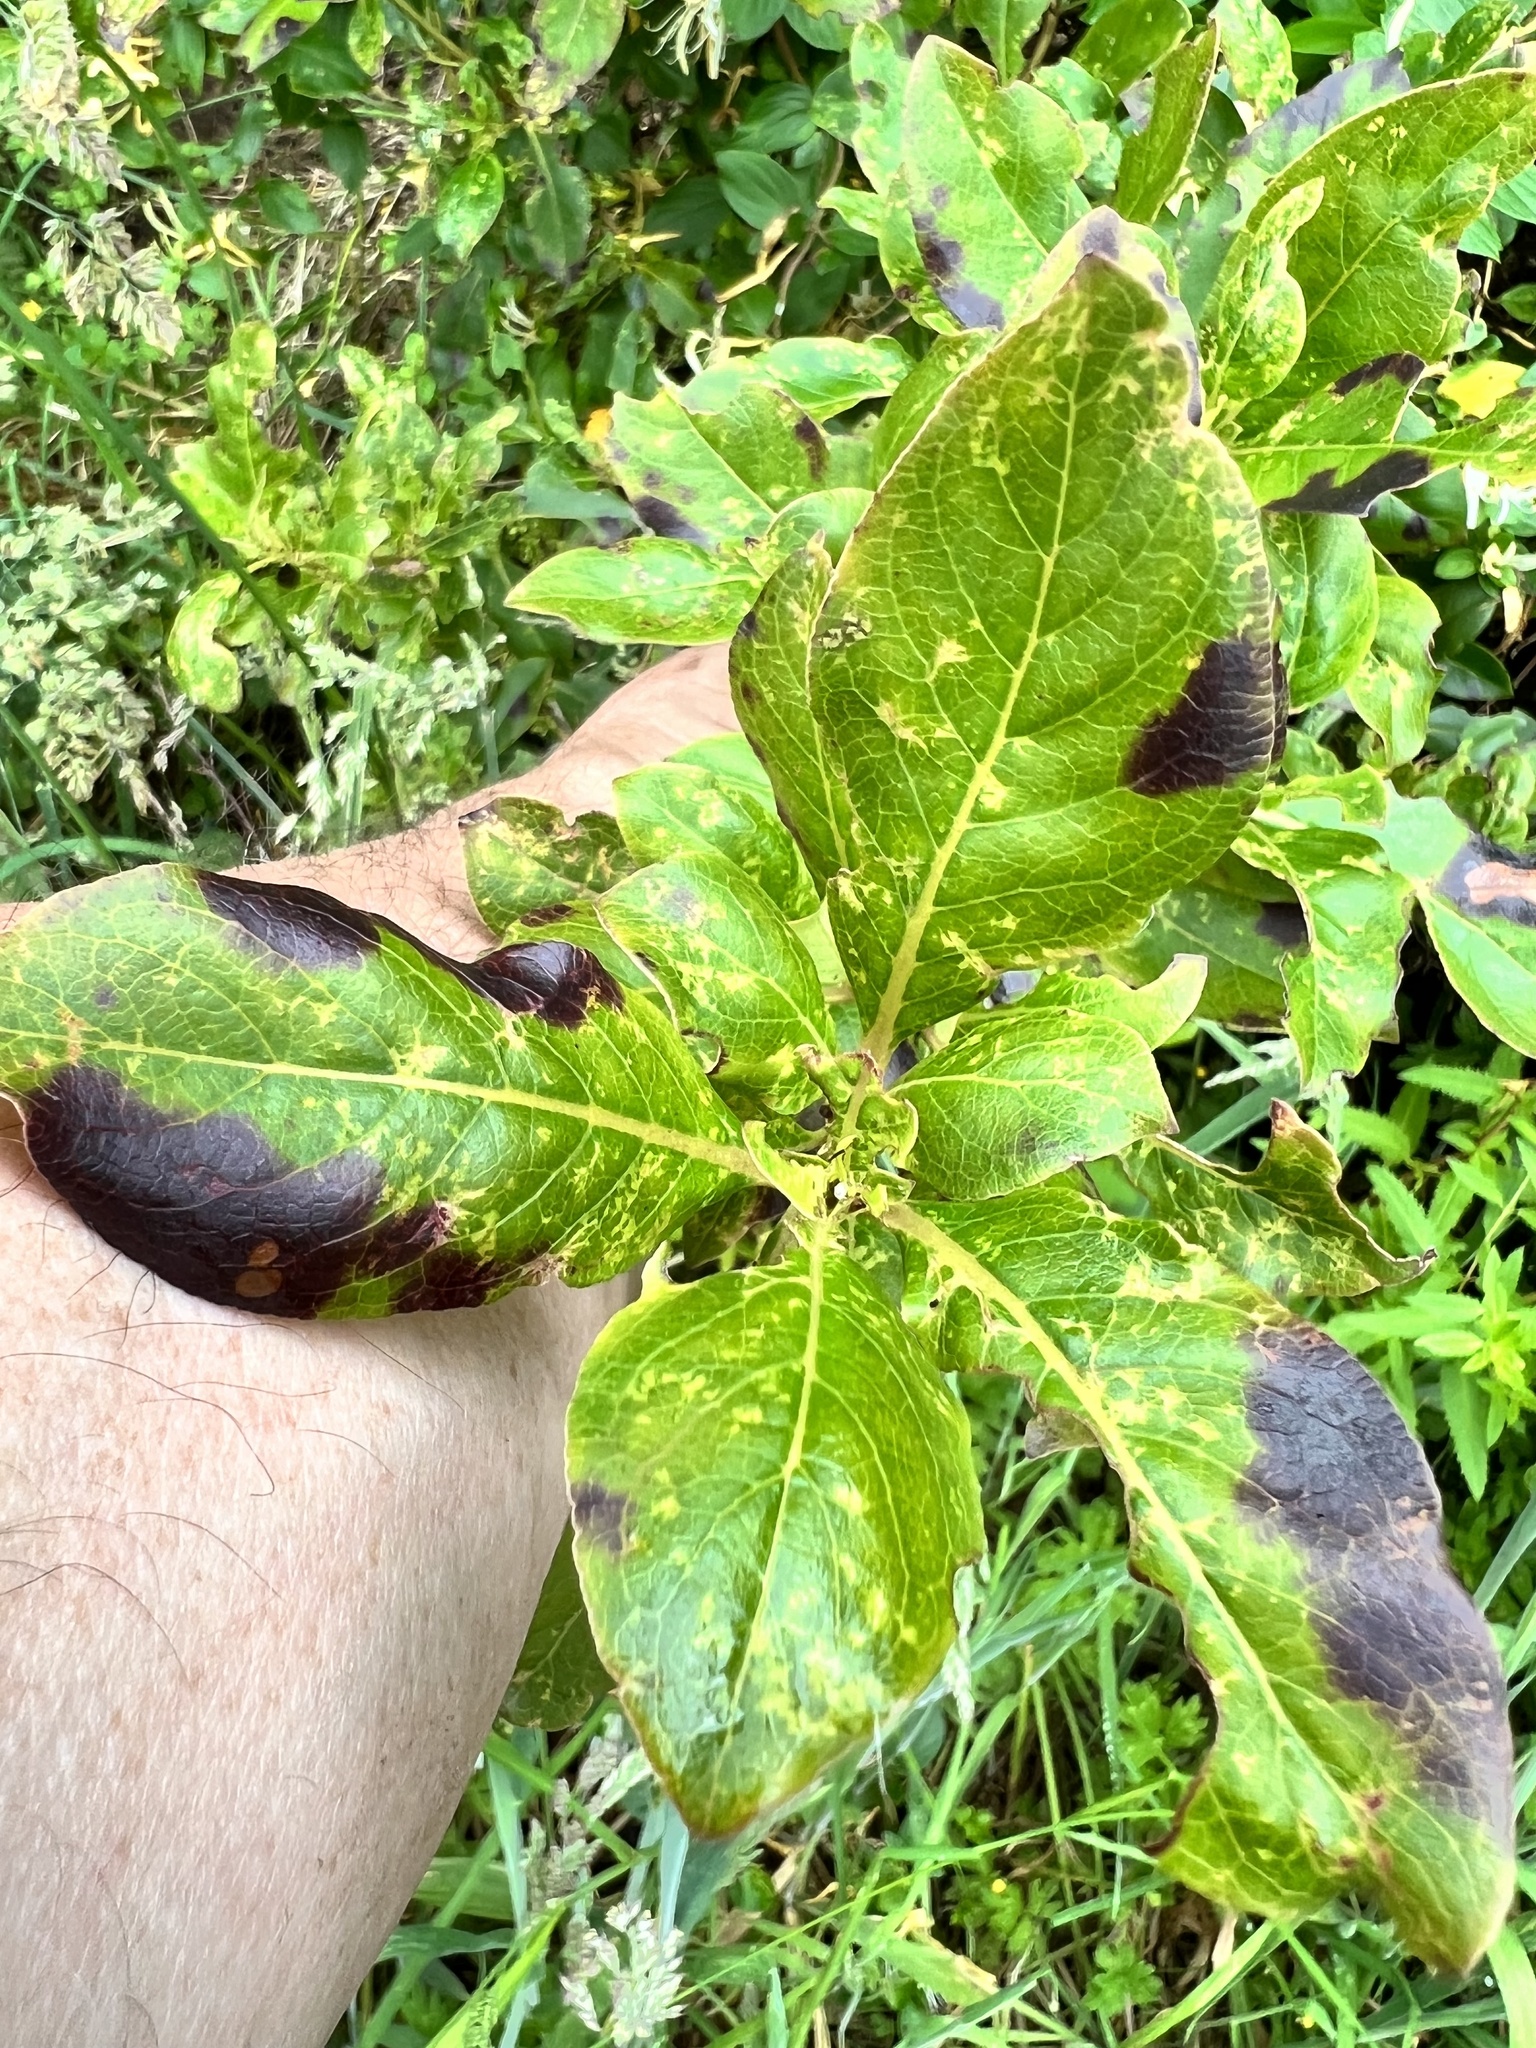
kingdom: Plantae
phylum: Tracheophyta
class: Magnoliopsida
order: Gentianales
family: Rubiaceae
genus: Coprosma
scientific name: Coprosma robusta
